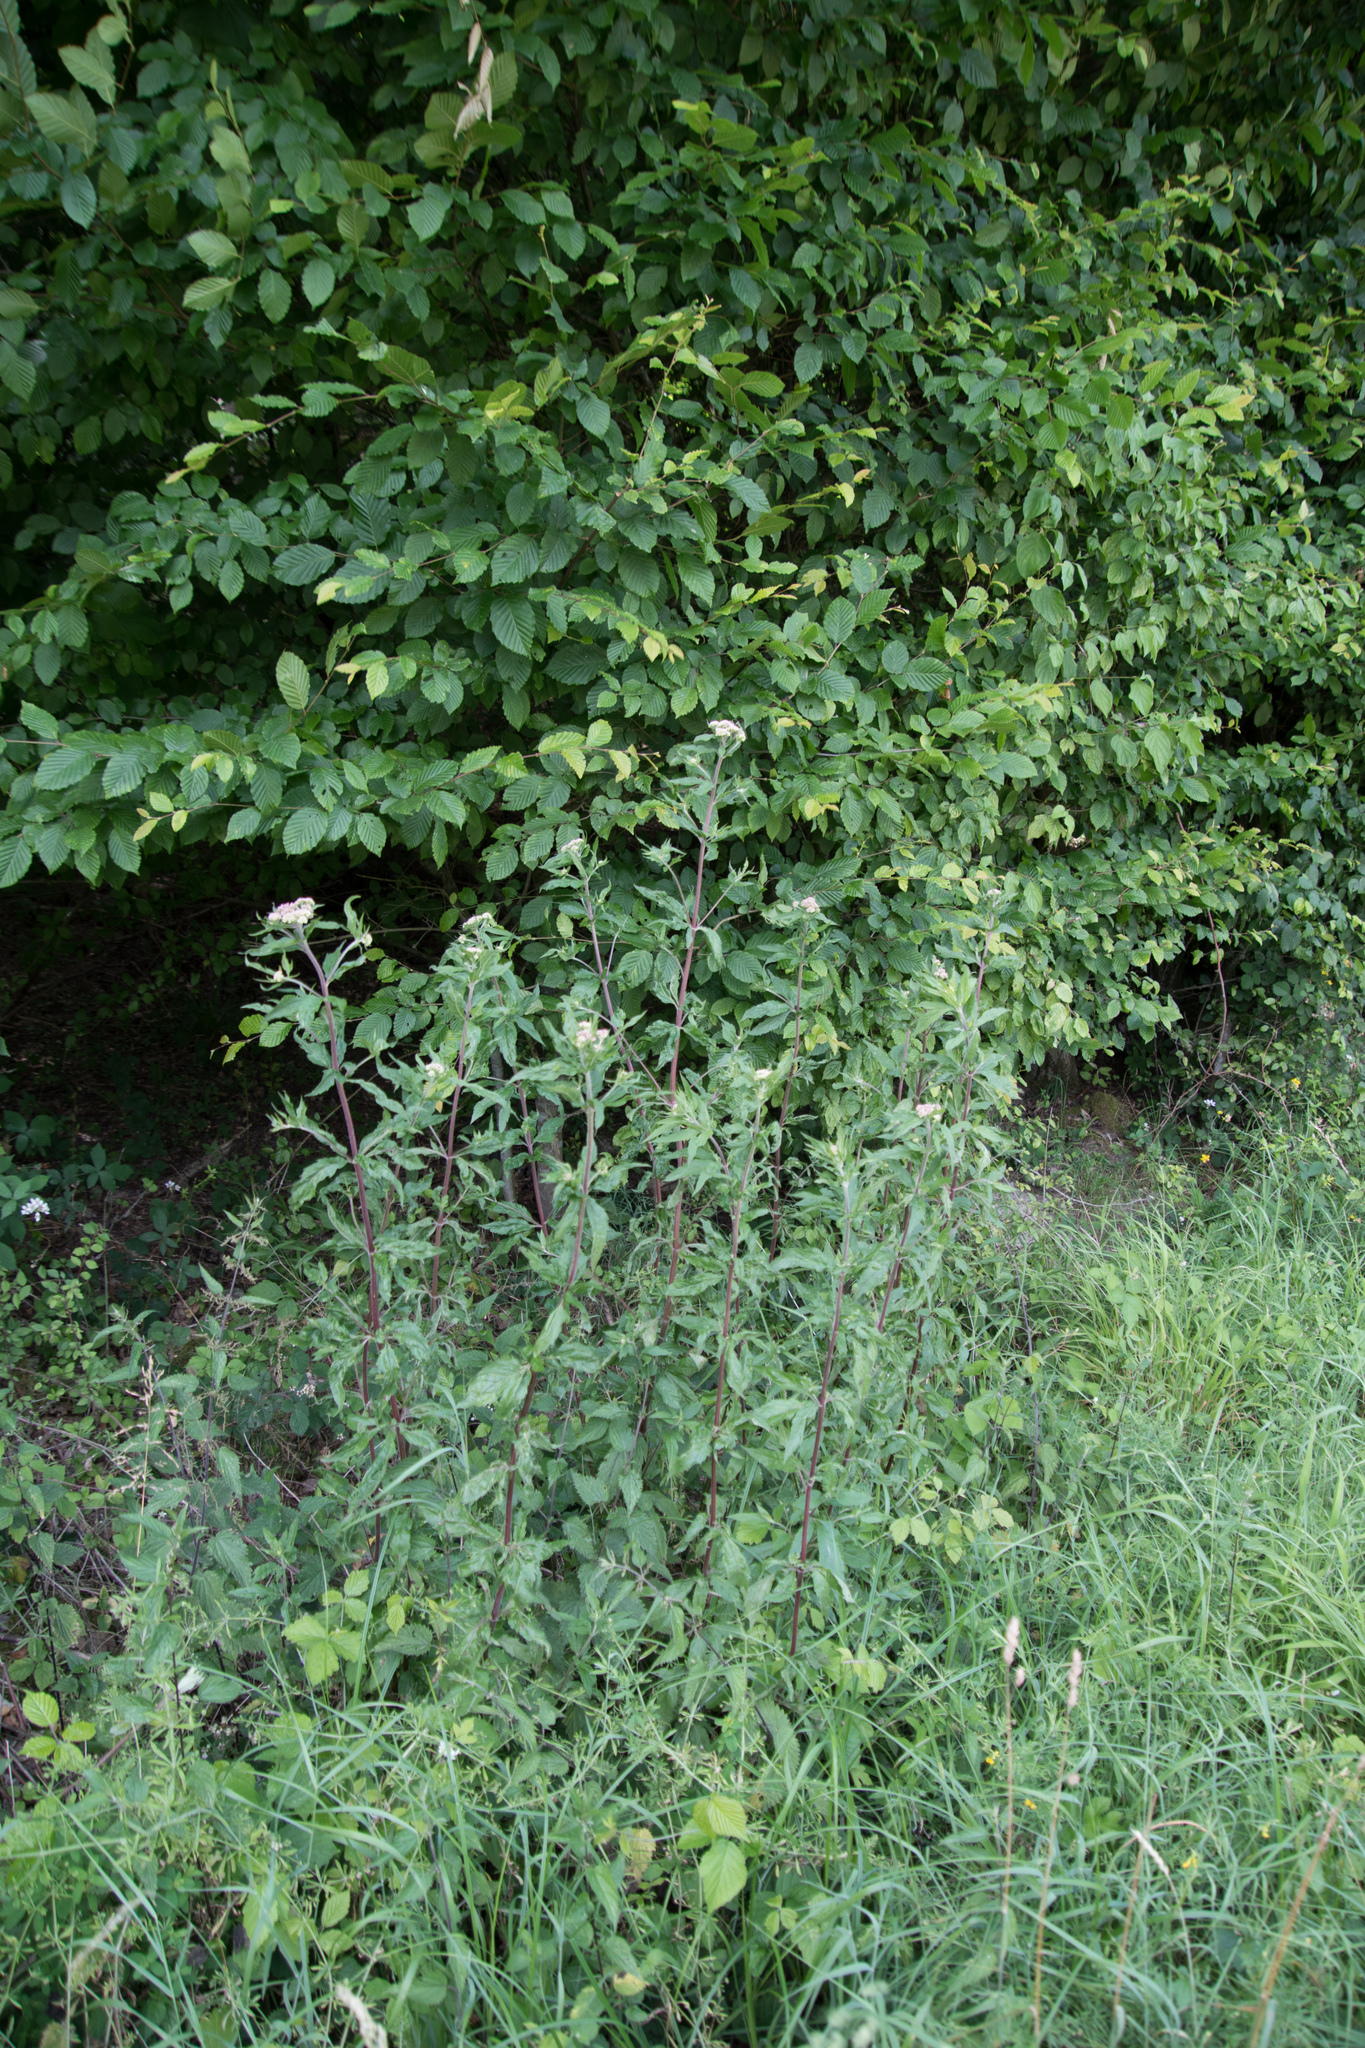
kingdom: Plantae
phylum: Tracheophyta
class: Magnoliopsida
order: Asterales
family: Asteraceae
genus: Eupatorium
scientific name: Eupatorium cannabinum
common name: Hemp-agrimony
